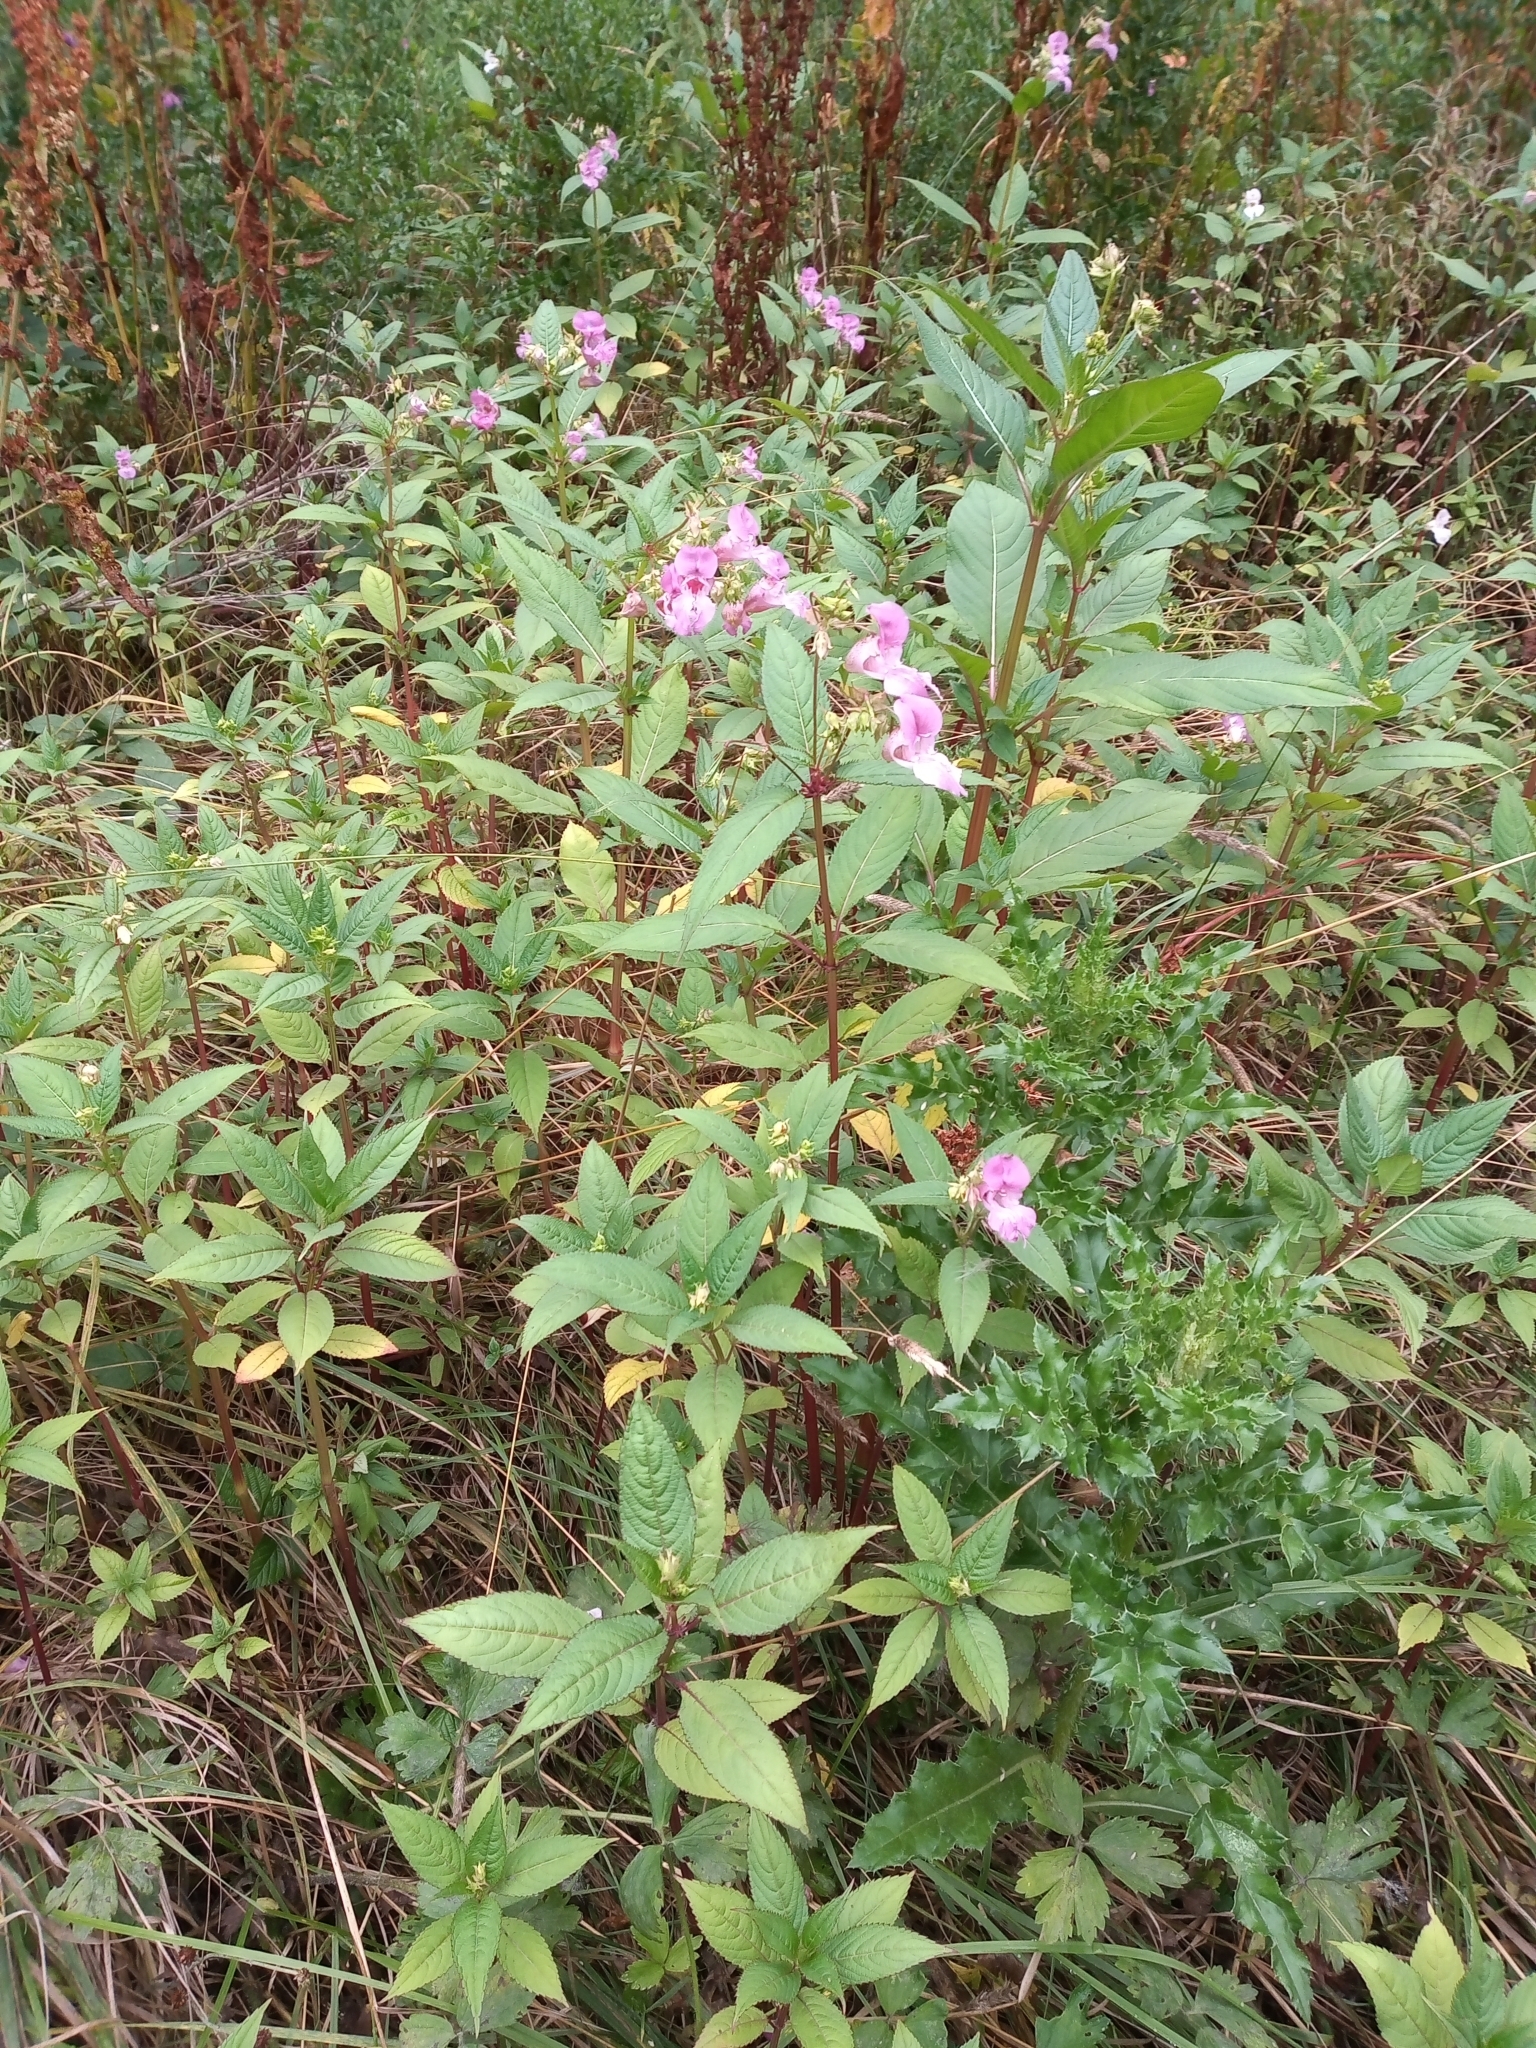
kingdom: Plantae
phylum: Tracheophyta
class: Magnoliopsida
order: Ericales
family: Balsaminaceae
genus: Impatiens
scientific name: Impatiens glandulifera
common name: Himalayan balsam
